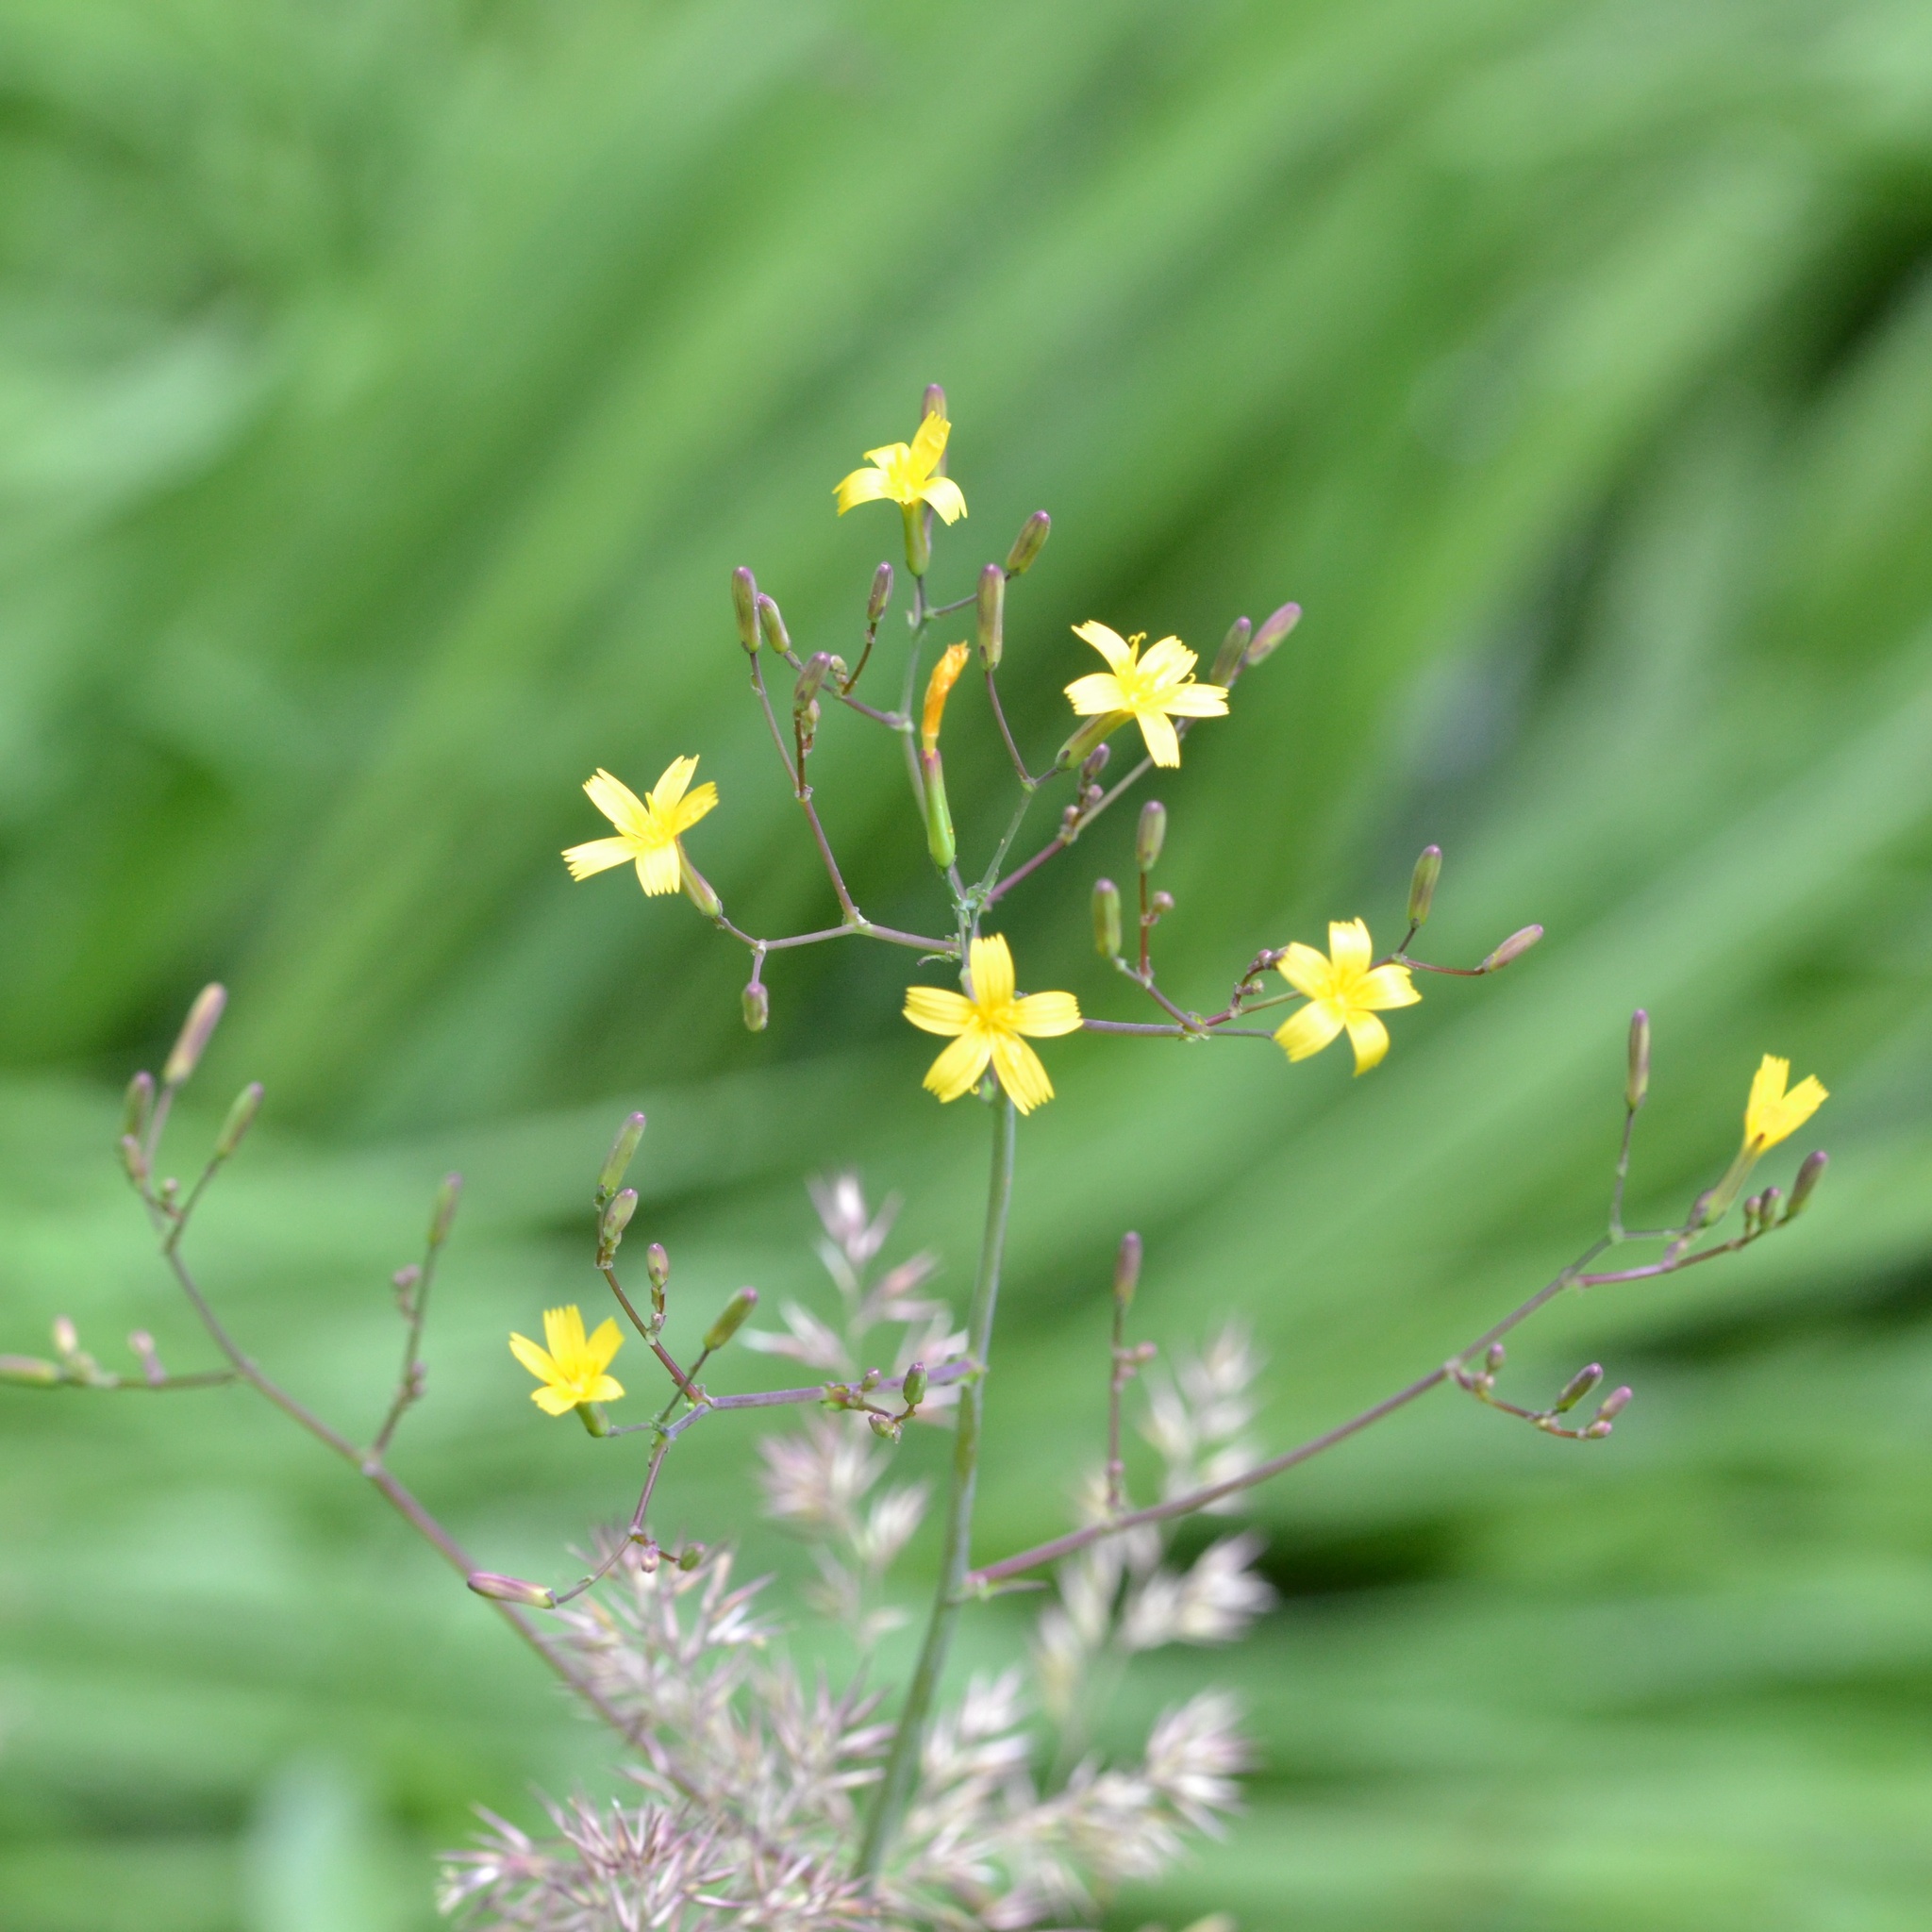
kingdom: Plantae
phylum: Tracheophyta
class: Magnoliopsida
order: Asterales
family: Asteraceae
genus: Mycelis
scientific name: Mycelis muralis
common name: Wall lettuce
